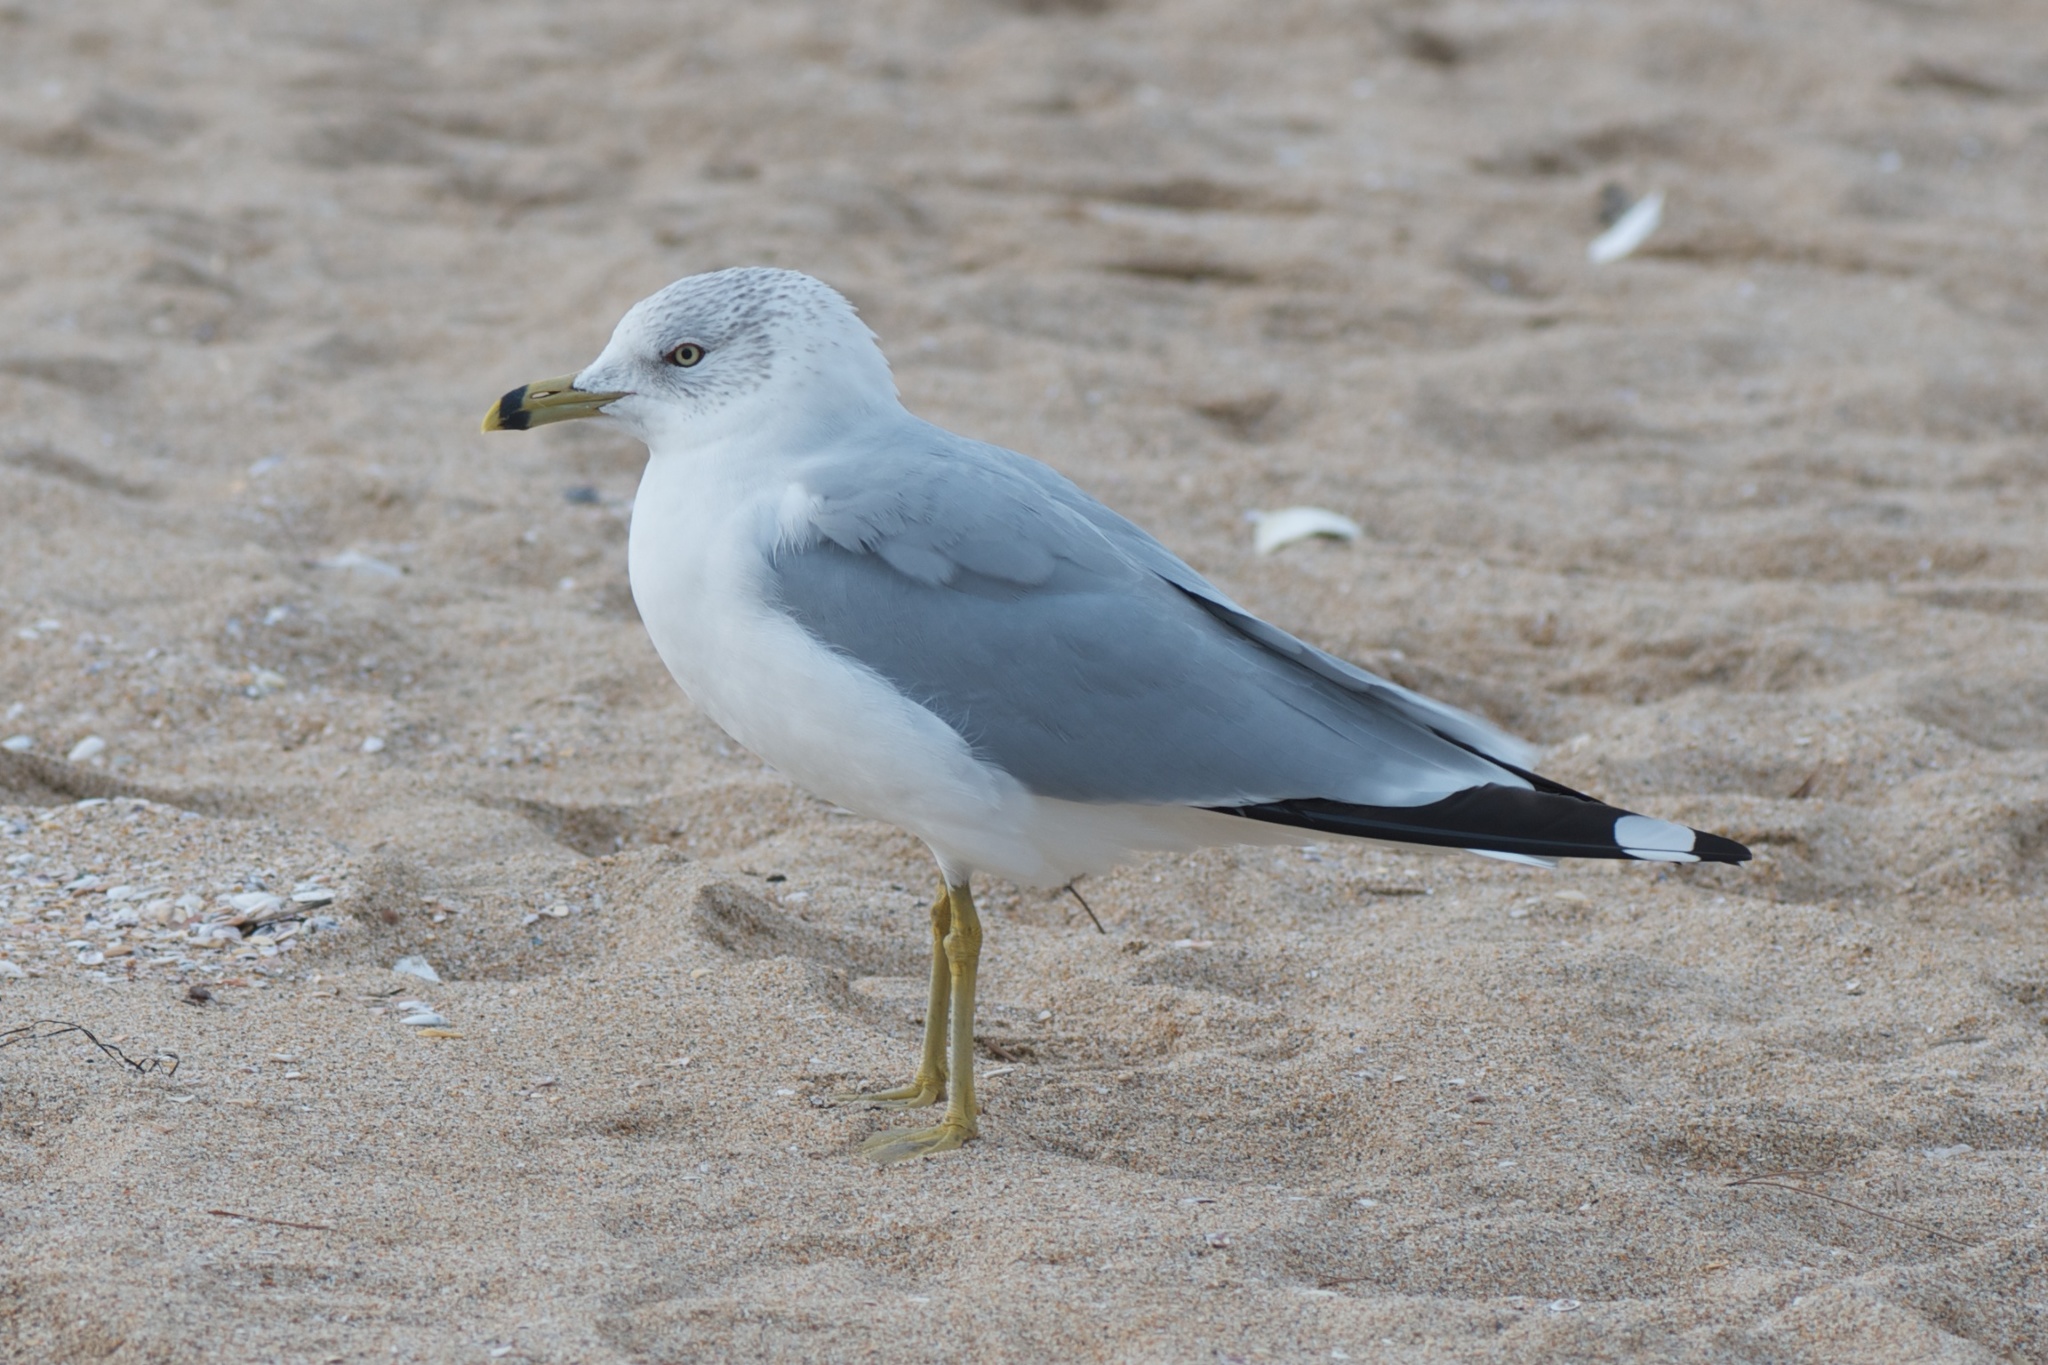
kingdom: Animalia
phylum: Chordata
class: Aves
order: Charadriiformes
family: Laridae
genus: Larus
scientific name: Larus delawarensis
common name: Ring-billed gull
